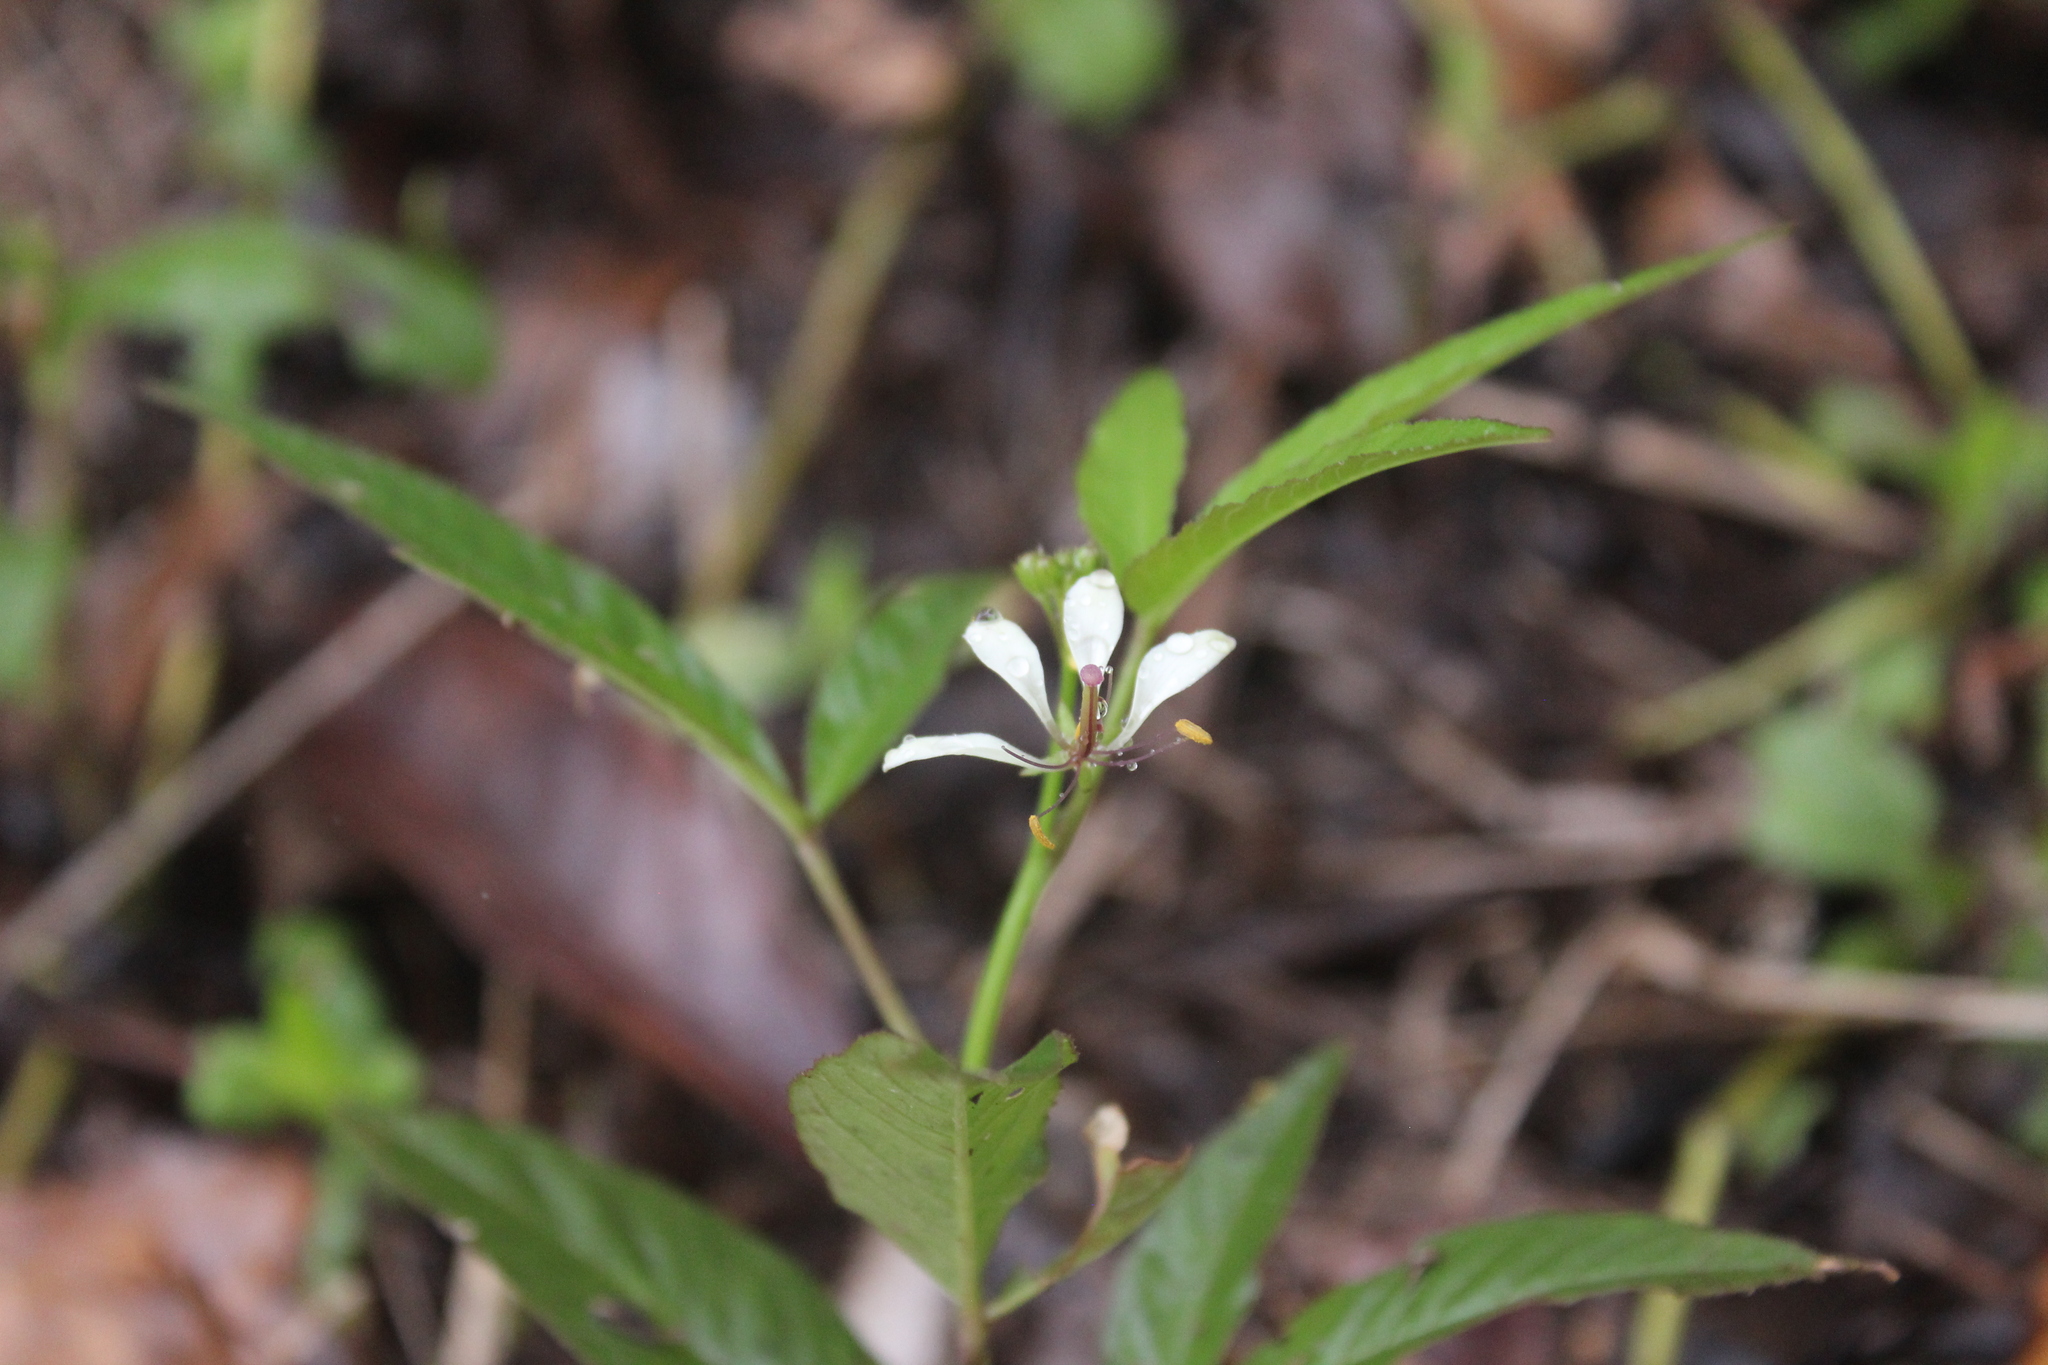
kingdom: Plantae
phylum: Tracheophyta
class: Magnoliopsida
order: Brassicales
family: Cleomaceae
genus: Tarenaya
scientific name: Tarenaya aculeata
